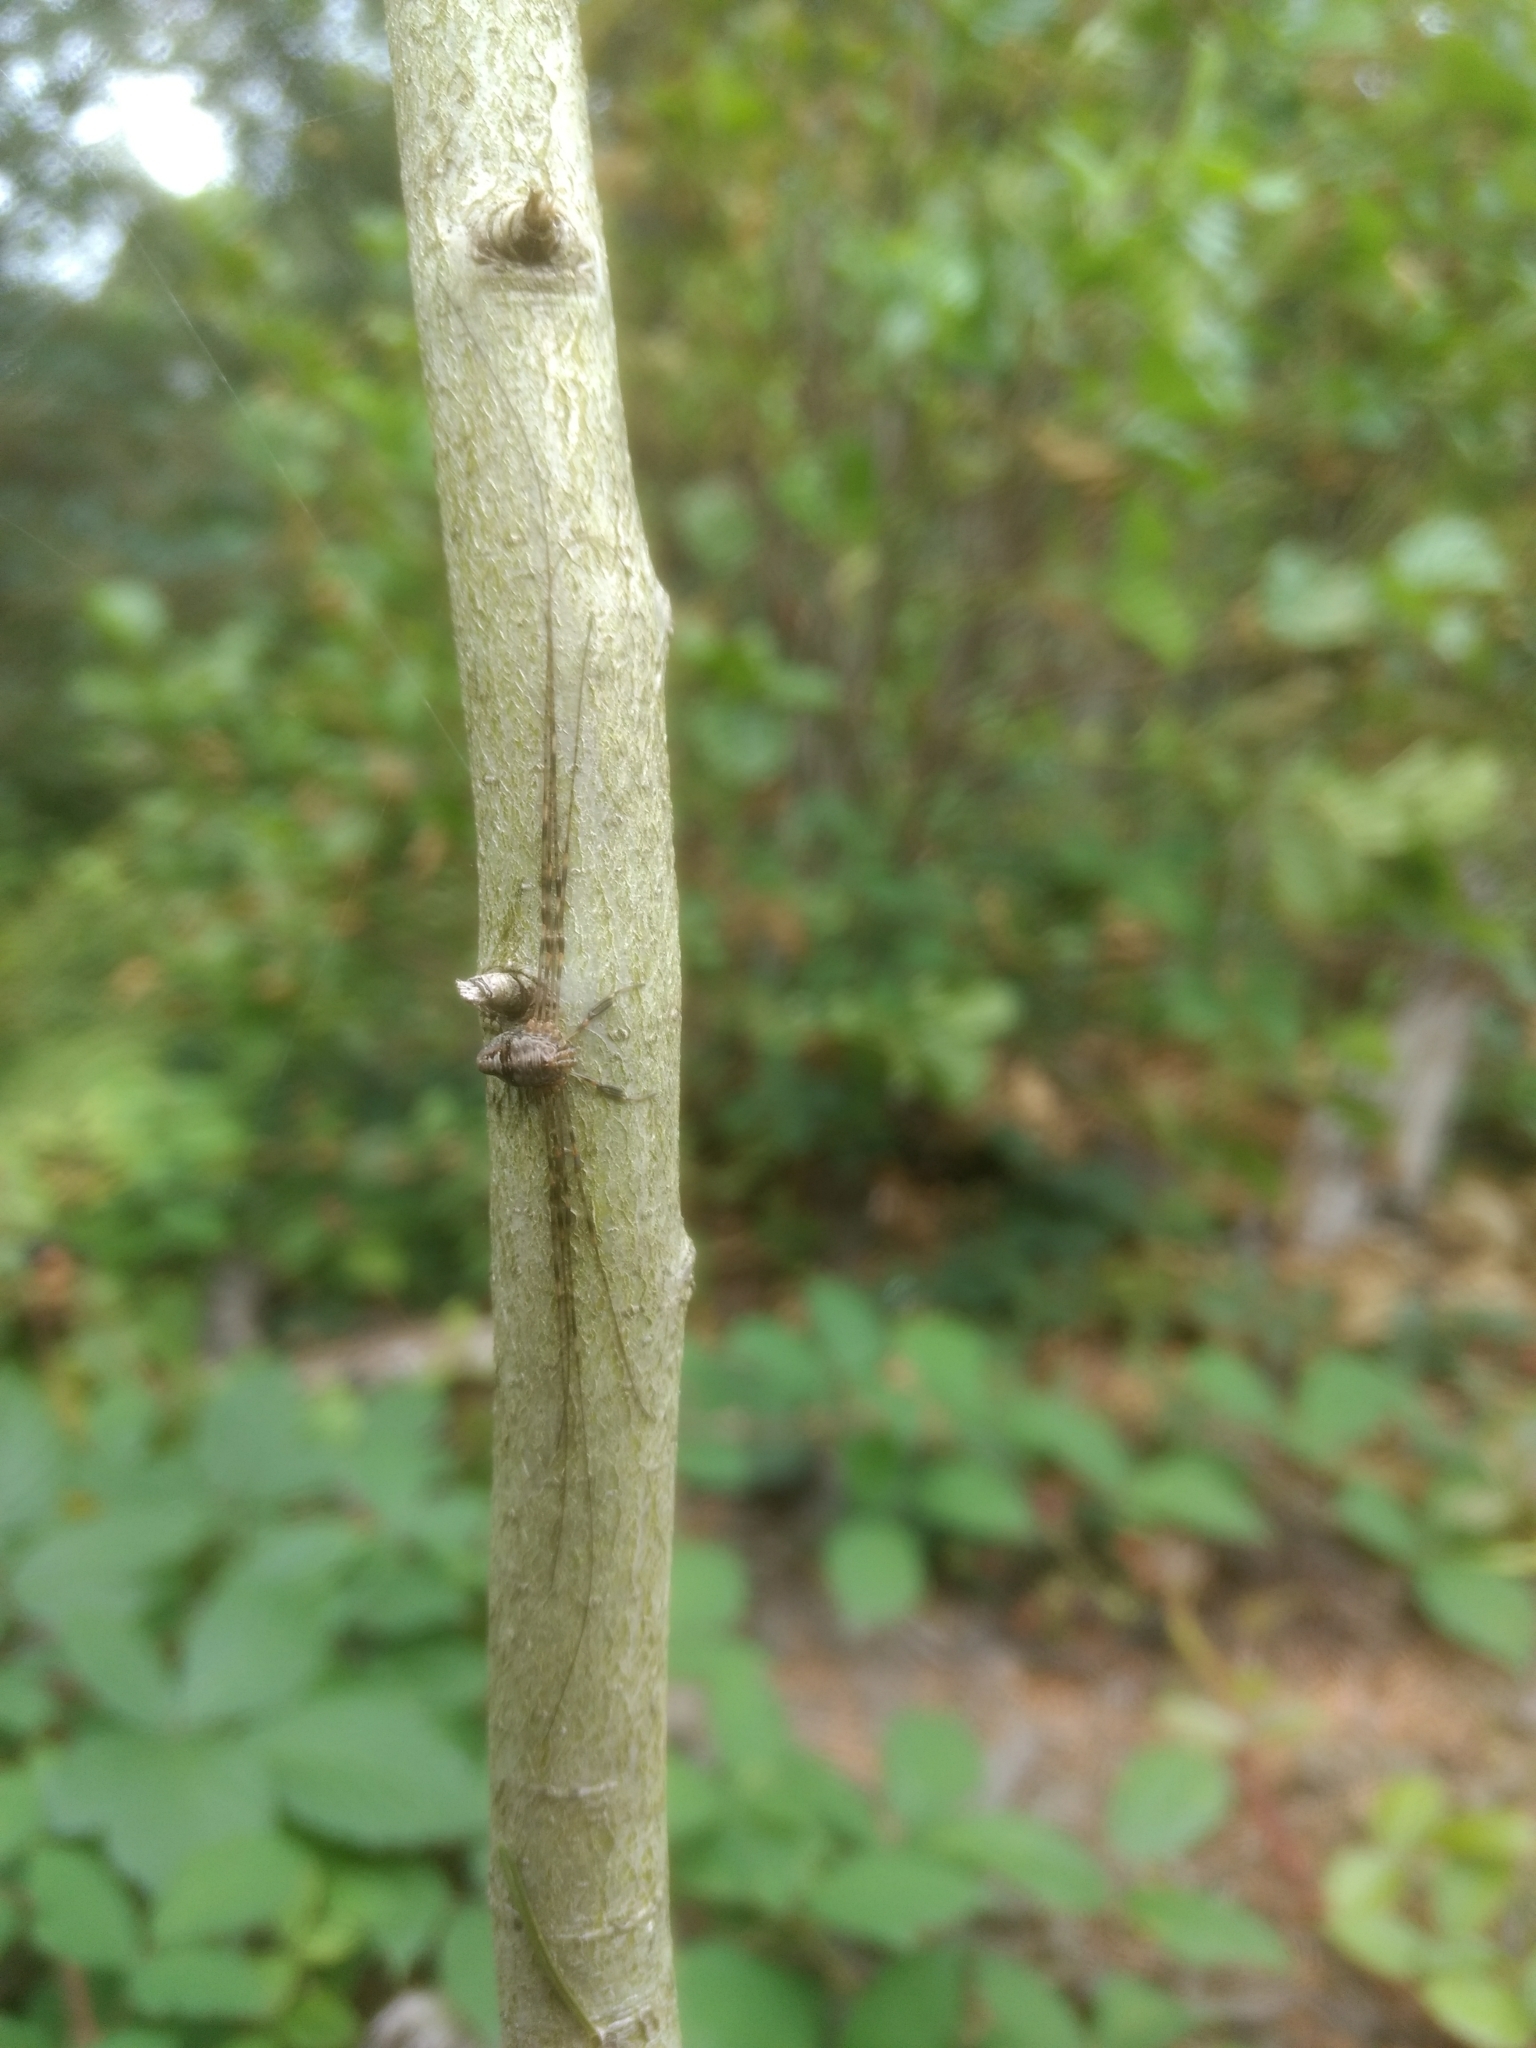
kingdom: Animalia
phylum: Arthropoda
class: Arachnida
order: Opiliones
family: Phalangiidae
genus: Dicranopalpus
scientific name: Dicranopalpus ramosus
